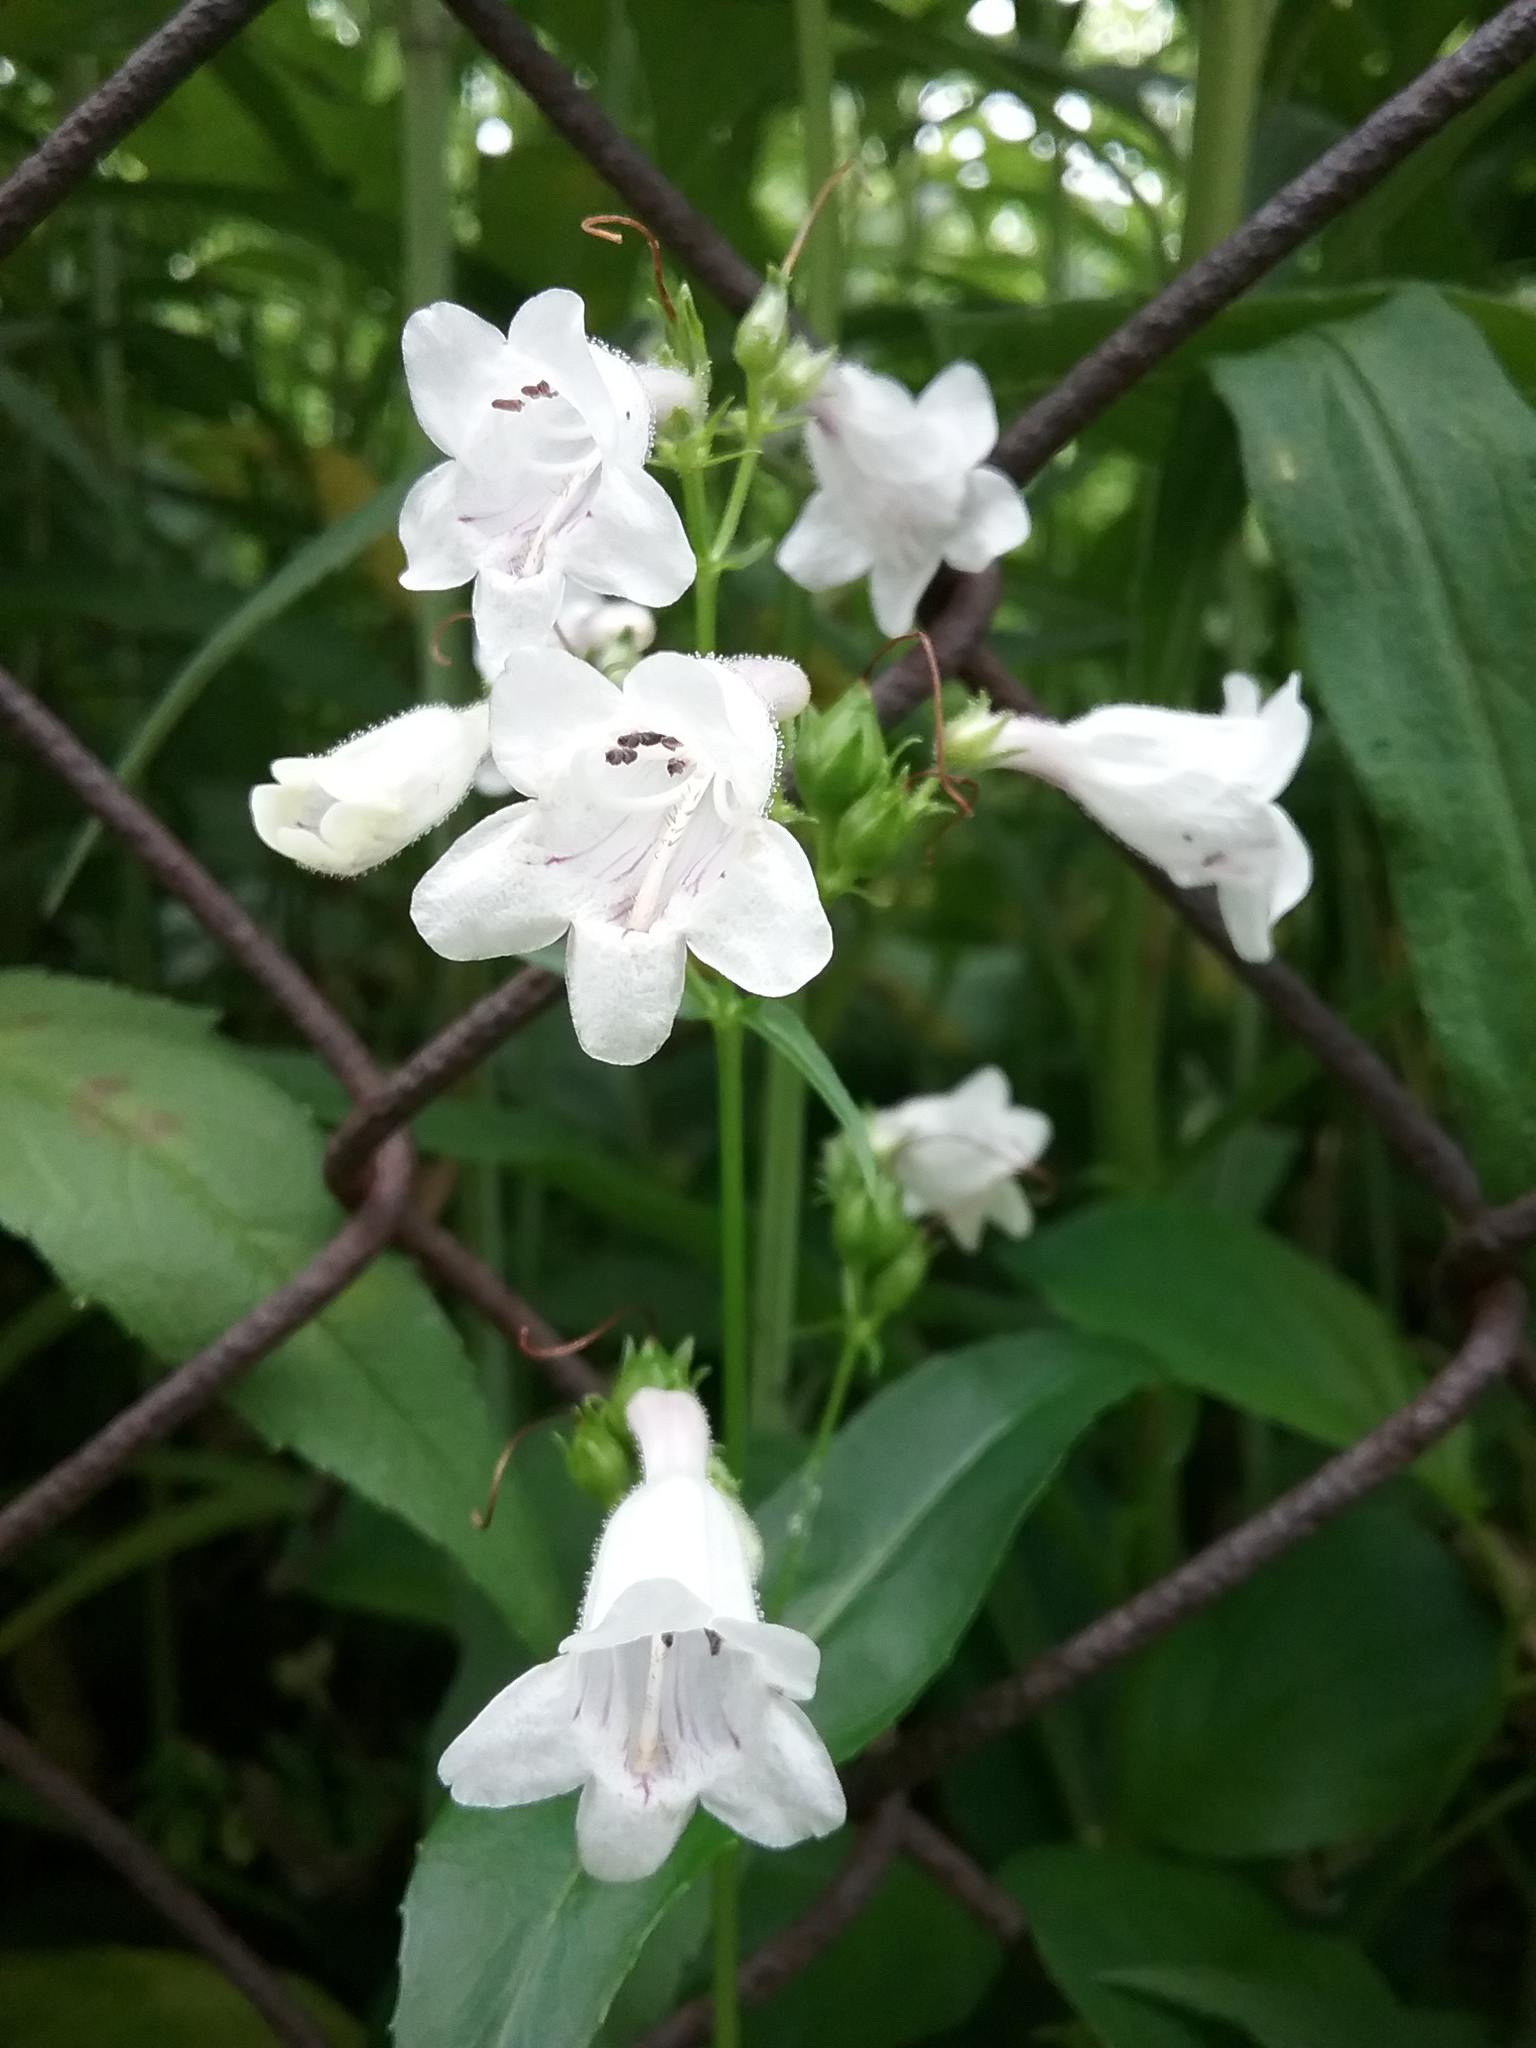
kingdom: Plantae
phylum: Tracheophyta
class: Magnoliopsida
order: Lamiales
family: Plantaginaceae
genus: Penstemon
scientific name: Penstemon digitalis
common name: Foxglove beardtongue
